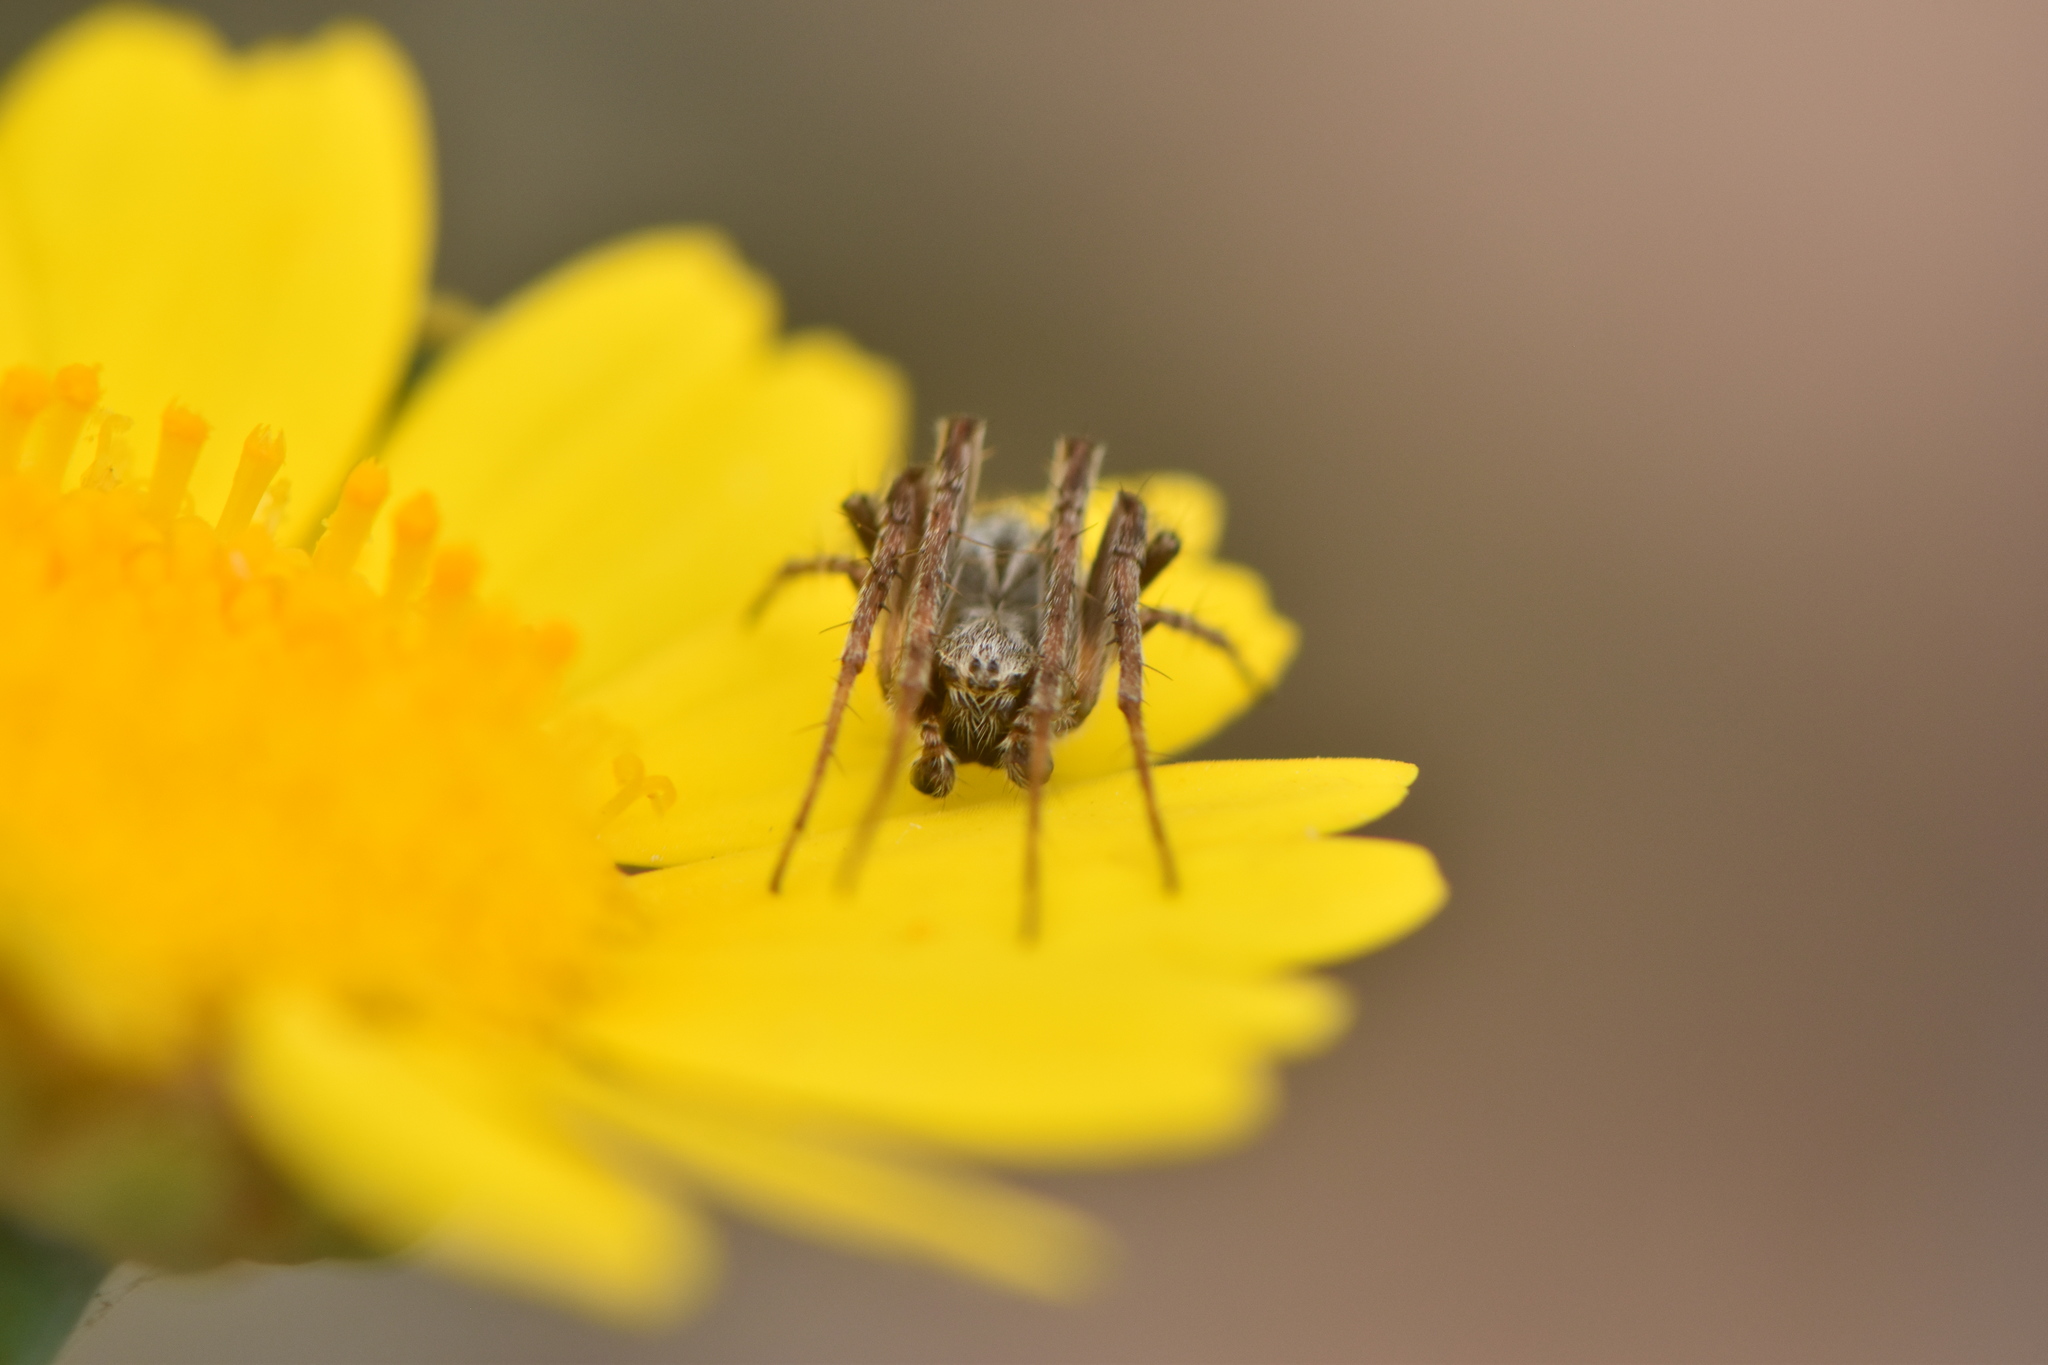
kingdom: Animalia
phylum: Arthropoda
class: Arachnida
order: Araneae
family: Araneidae
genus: Agalenatea
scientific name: Agalenatea redii
